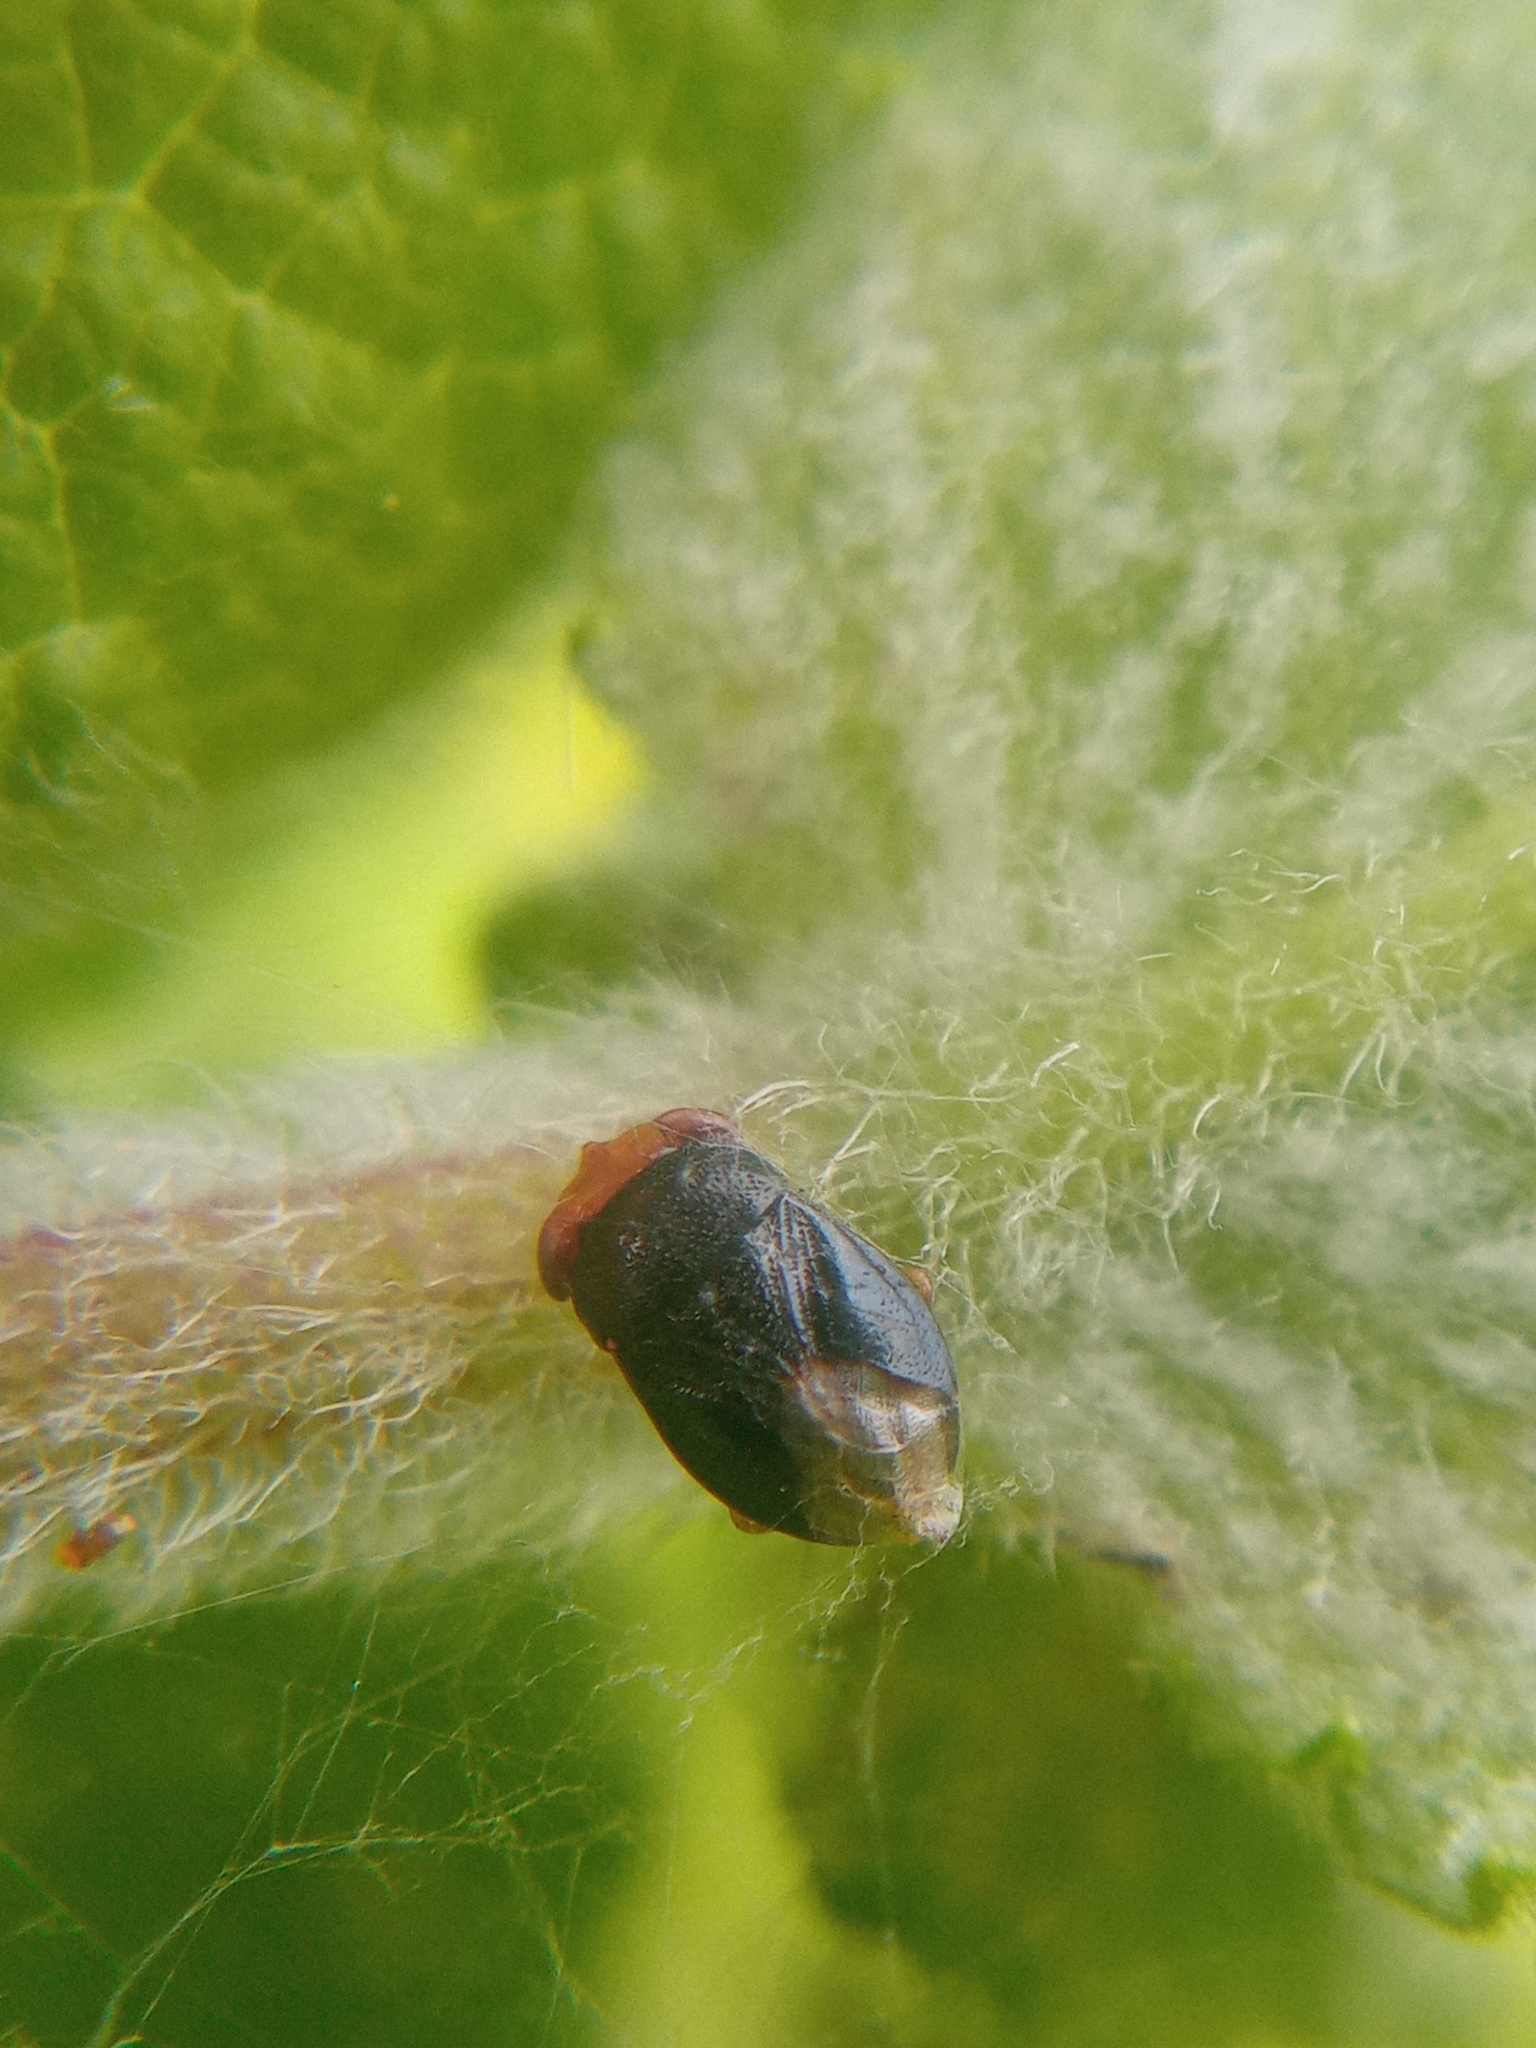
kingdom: Animalia
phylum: Arthropoda
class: Insecta
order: Hemiptera
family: Geocoridae
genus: Geocoris
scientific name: Geocoris erythrocephala
